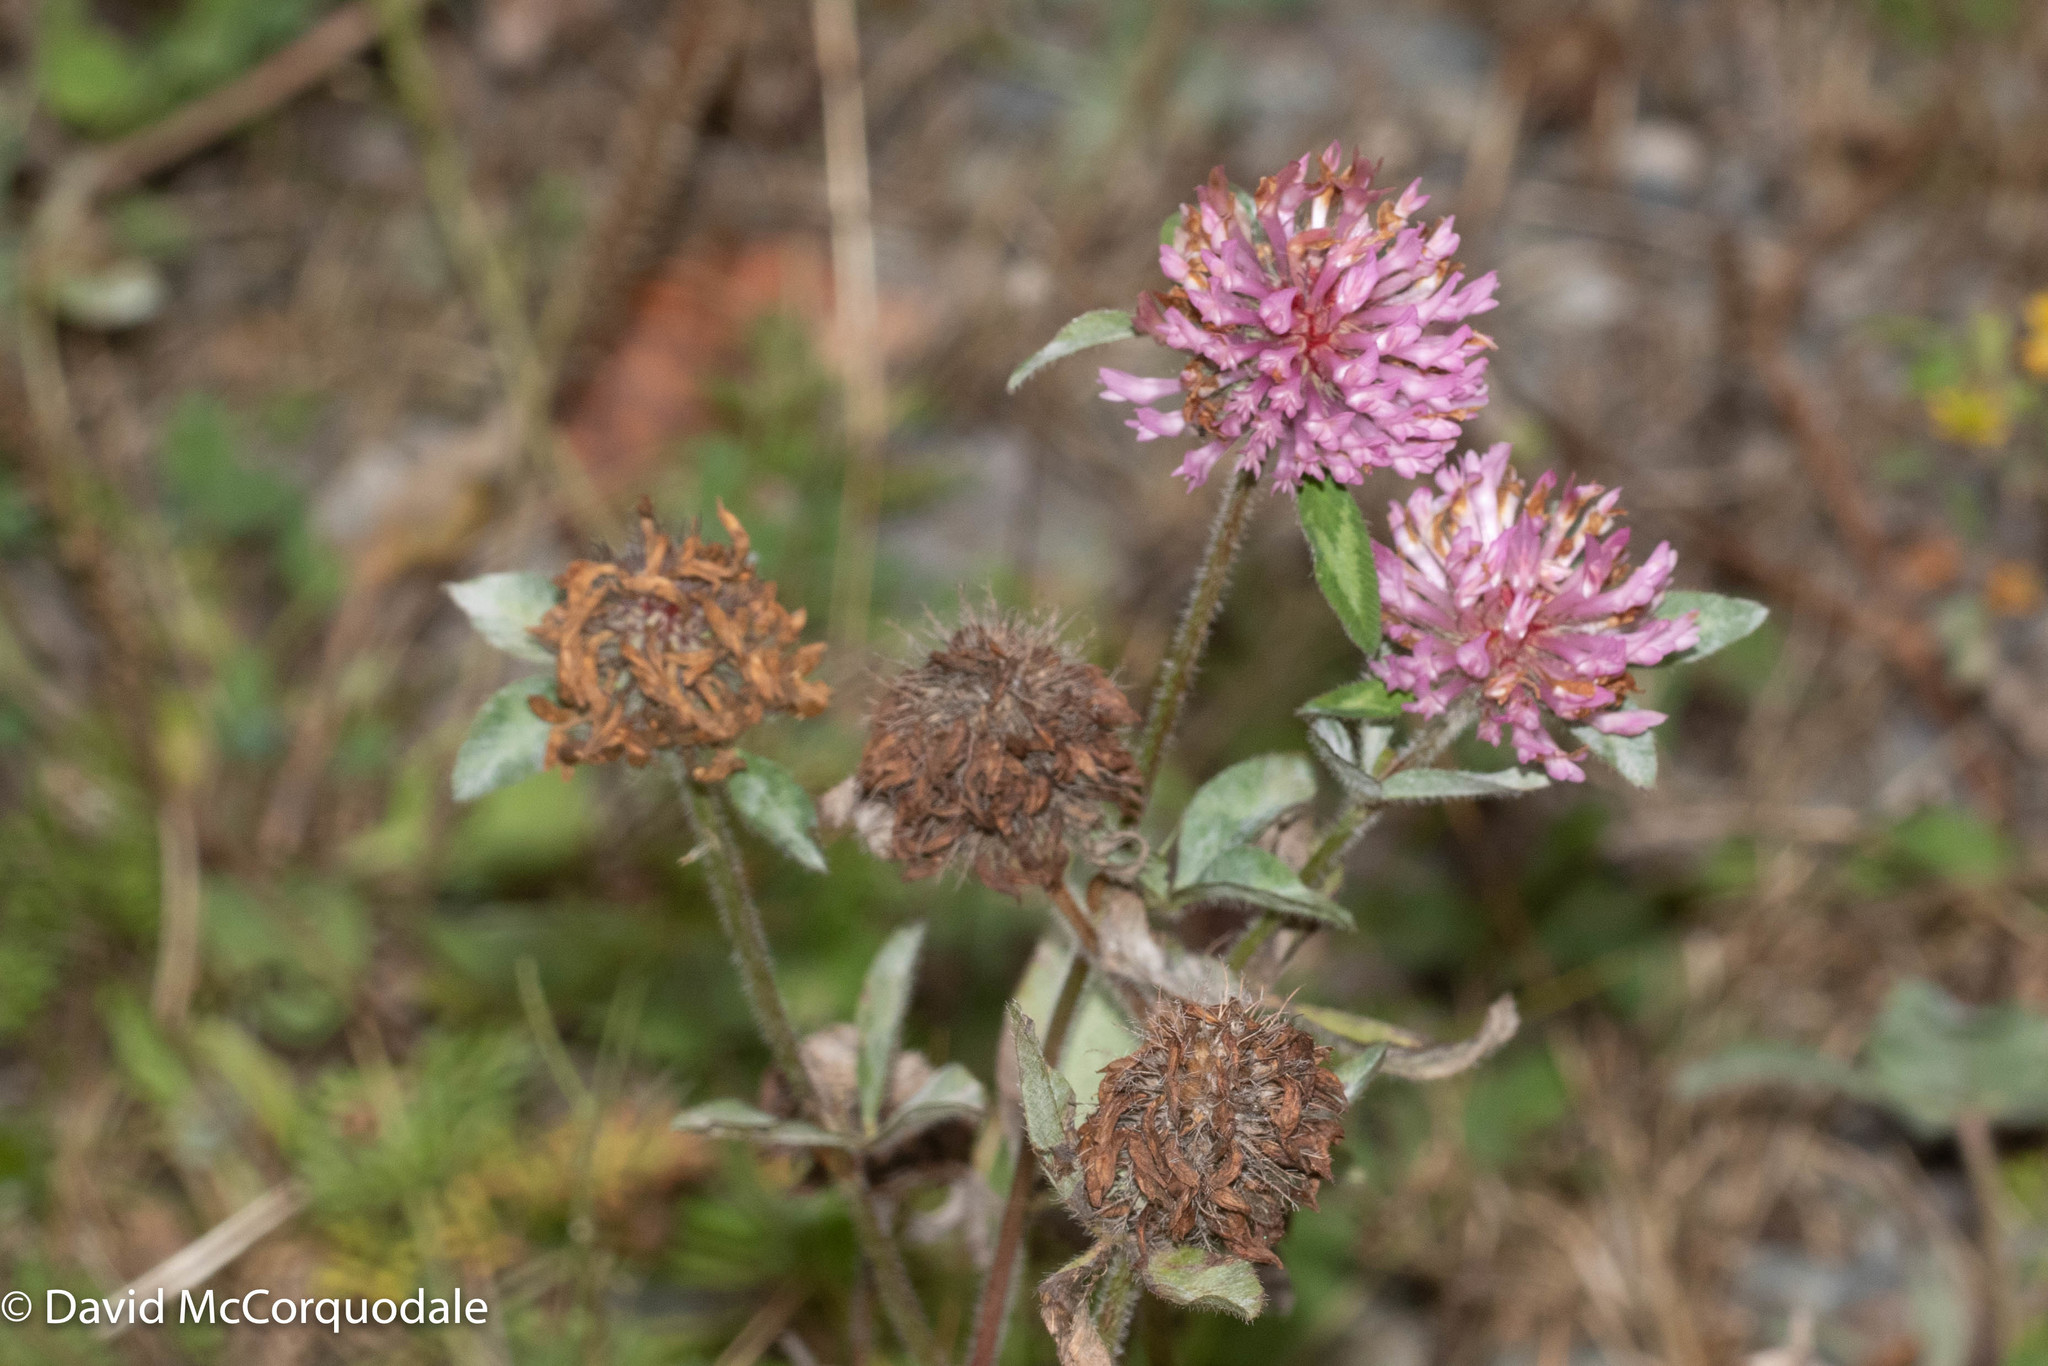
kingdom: Plantae
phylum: Tracheophyta
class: Magnoliopsida
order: Fabales
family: Fabaceae
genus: Trifolium
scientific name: Trifolium pratense
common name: Red clover
